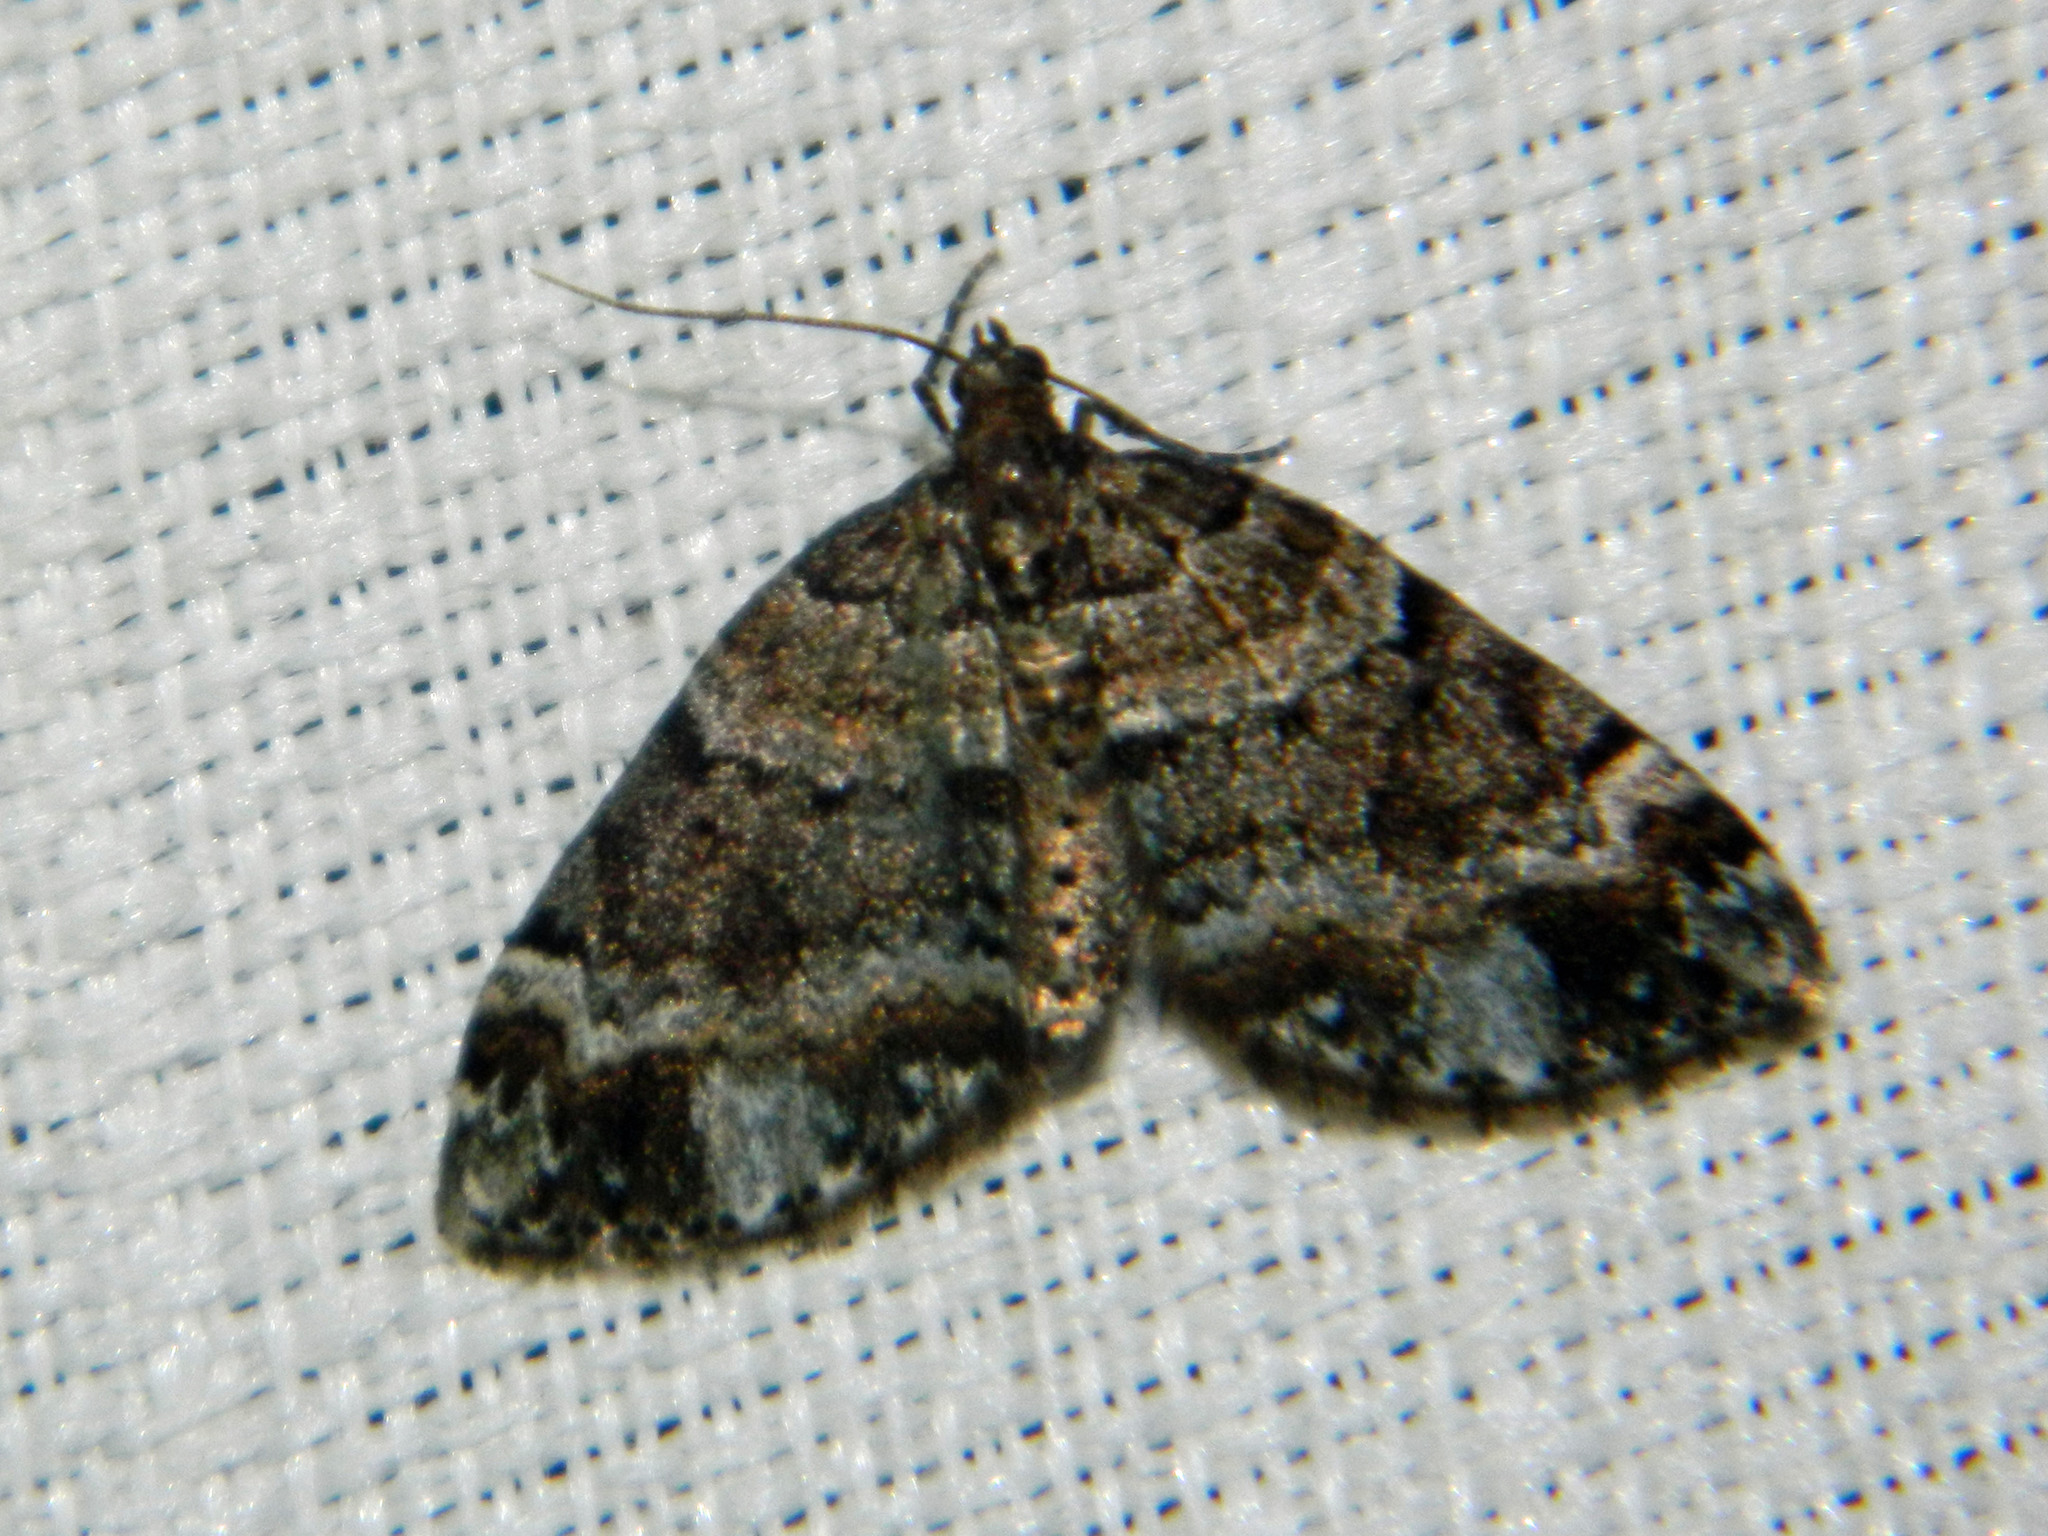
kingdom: Animalia
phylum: Arthropoda
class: Insecta
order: Lepidoptera
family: Geometridae
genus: Martania
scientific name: Martania
